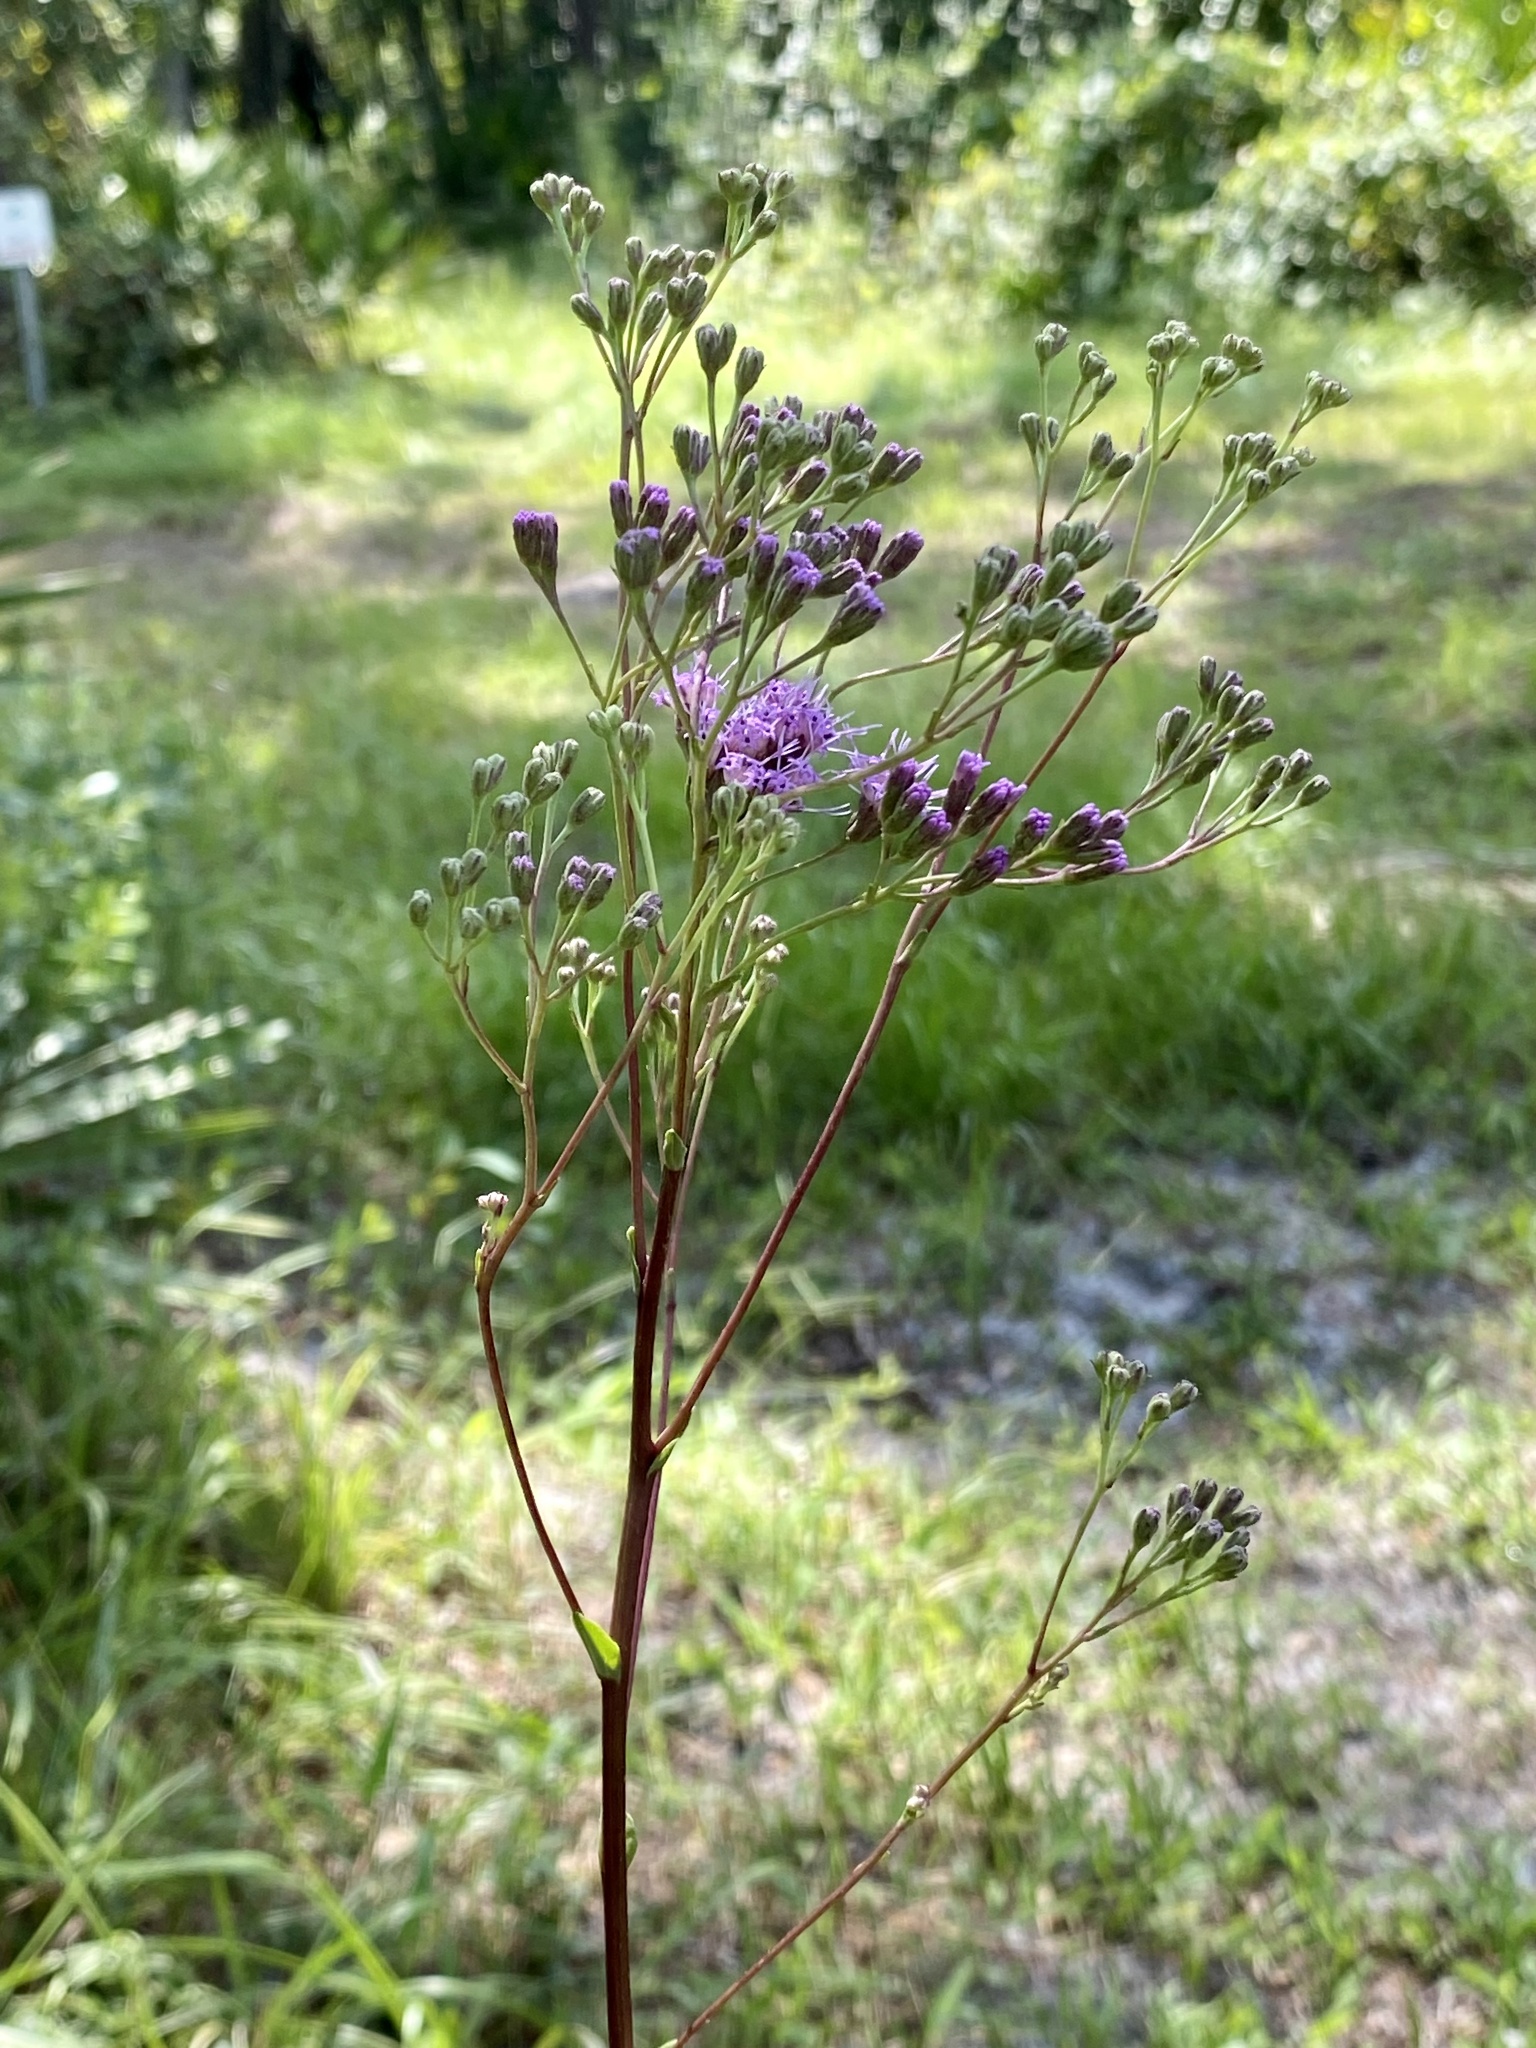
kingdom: Plantae
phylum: Tracheophyta
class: Magnoliopsida
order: Asterales
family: Asteraceae
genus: Carphephorus
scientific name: Carphephorus odoratissimus
